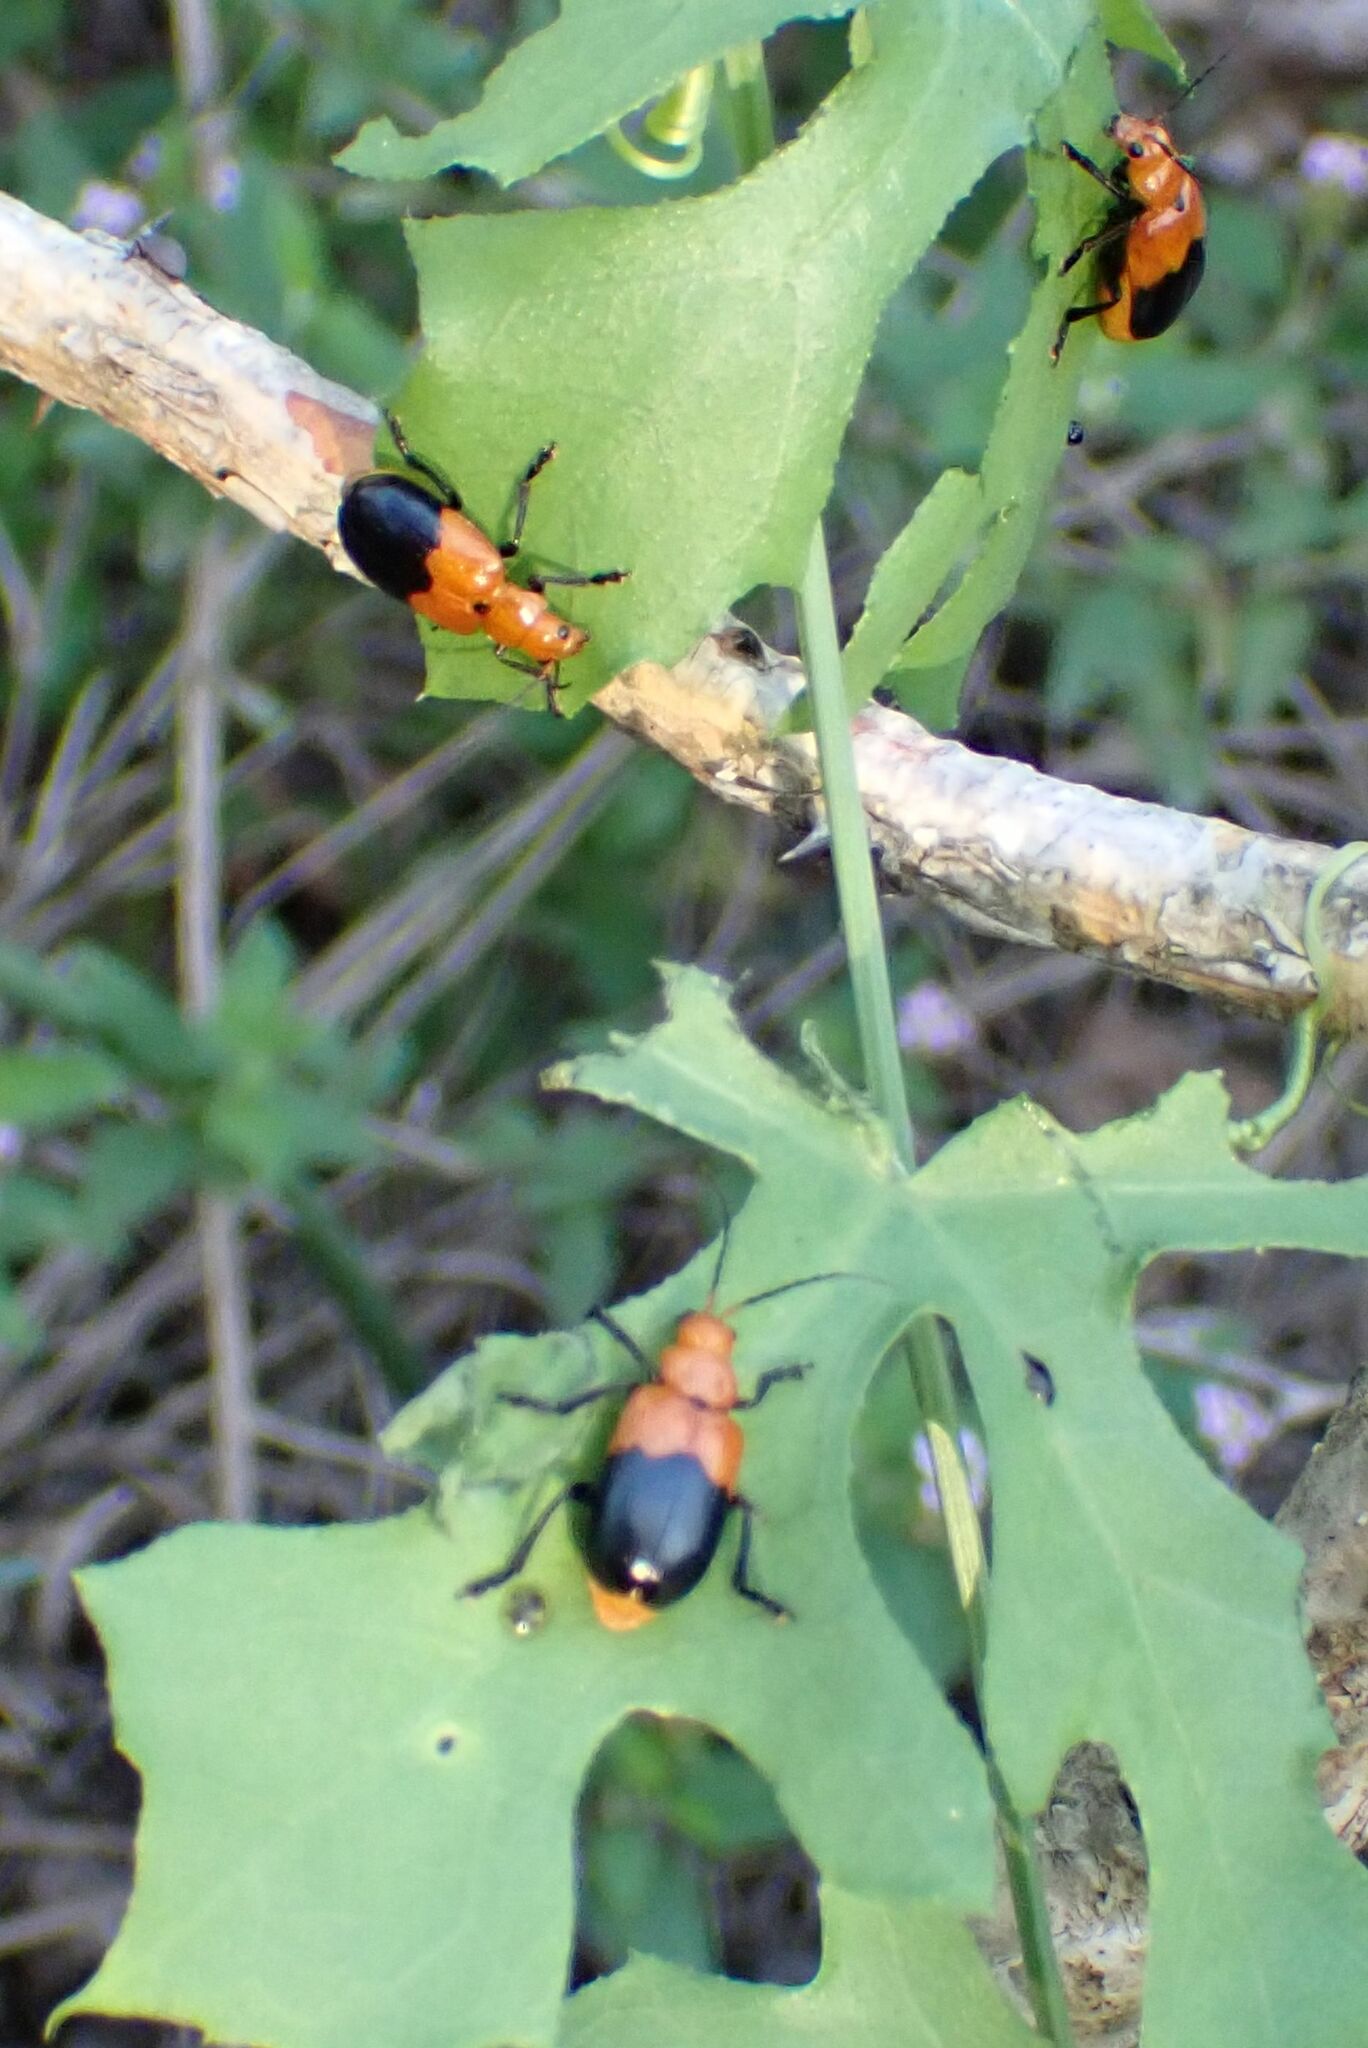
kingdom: Animalia
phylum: Arthropoda
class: Insecta
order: Coleoptera
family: Chrysomelidae
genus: Prosmidia
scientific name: Prosmidia
